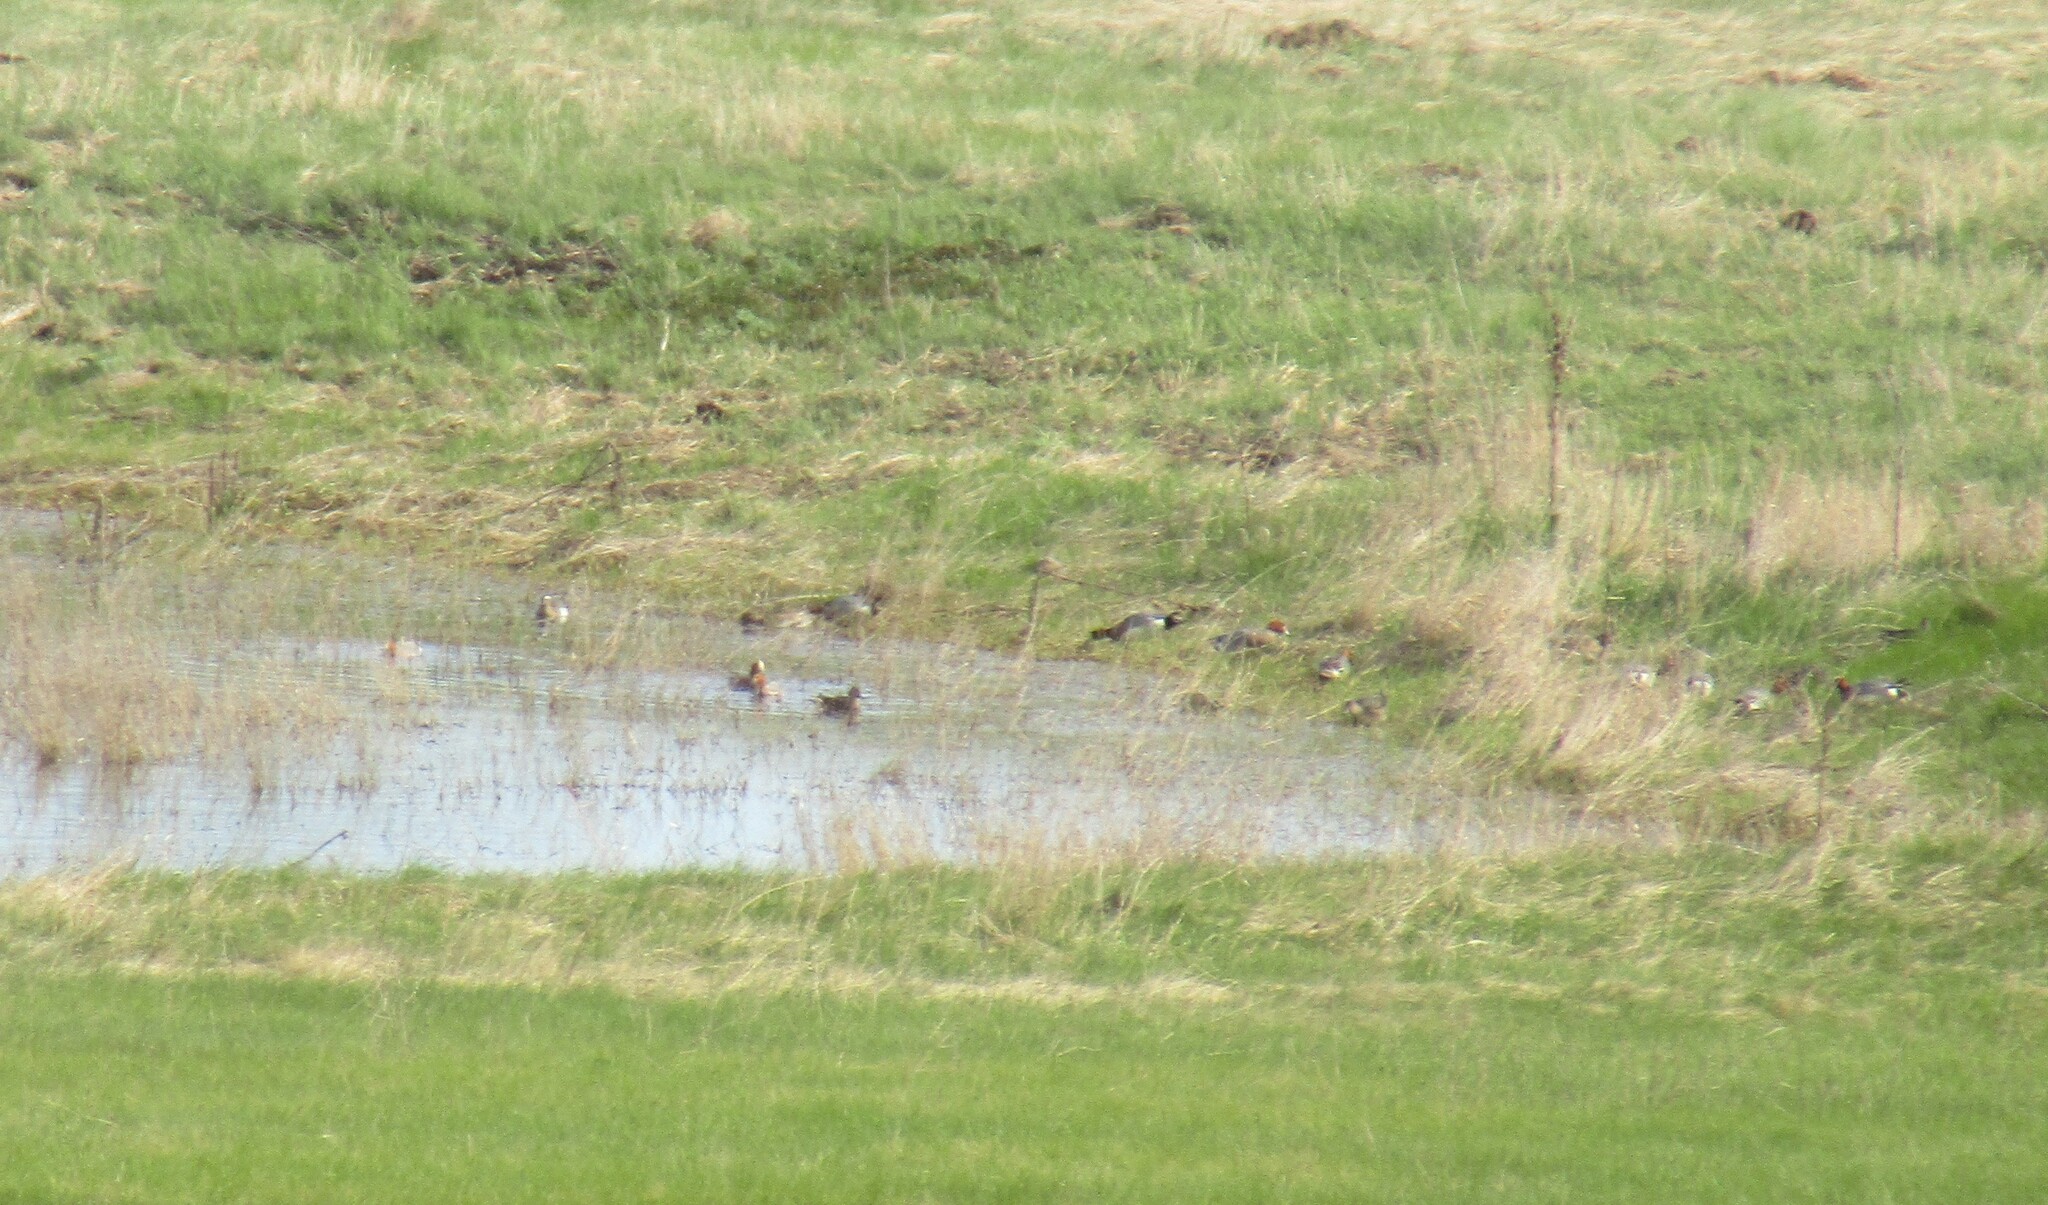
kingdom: Animalia
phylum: Chordata
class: Aves
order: Anseriformes
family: Anatidae
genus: Mareca
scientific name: Mareca penelope
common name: Eurasian wigeon
